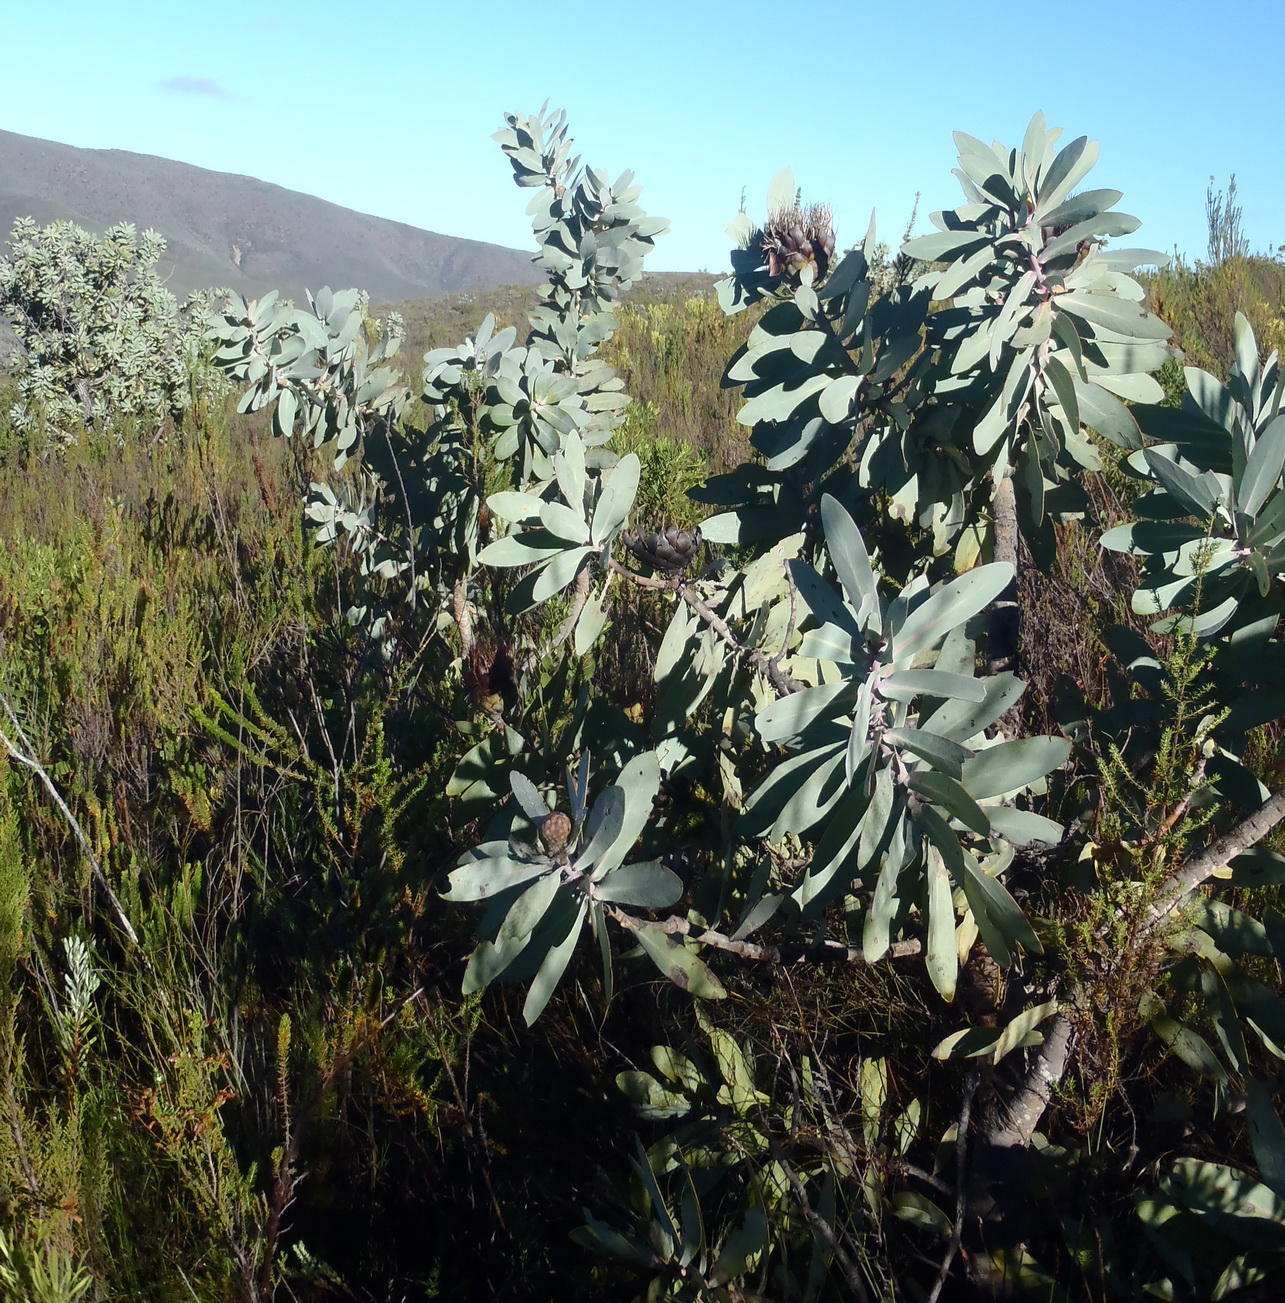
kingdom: Plantae
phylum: Tracheophyta
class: Magnoliopsida
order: Proteales
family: Proteaceae
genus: Protea
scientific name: Protea nitida
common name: Tree protea
